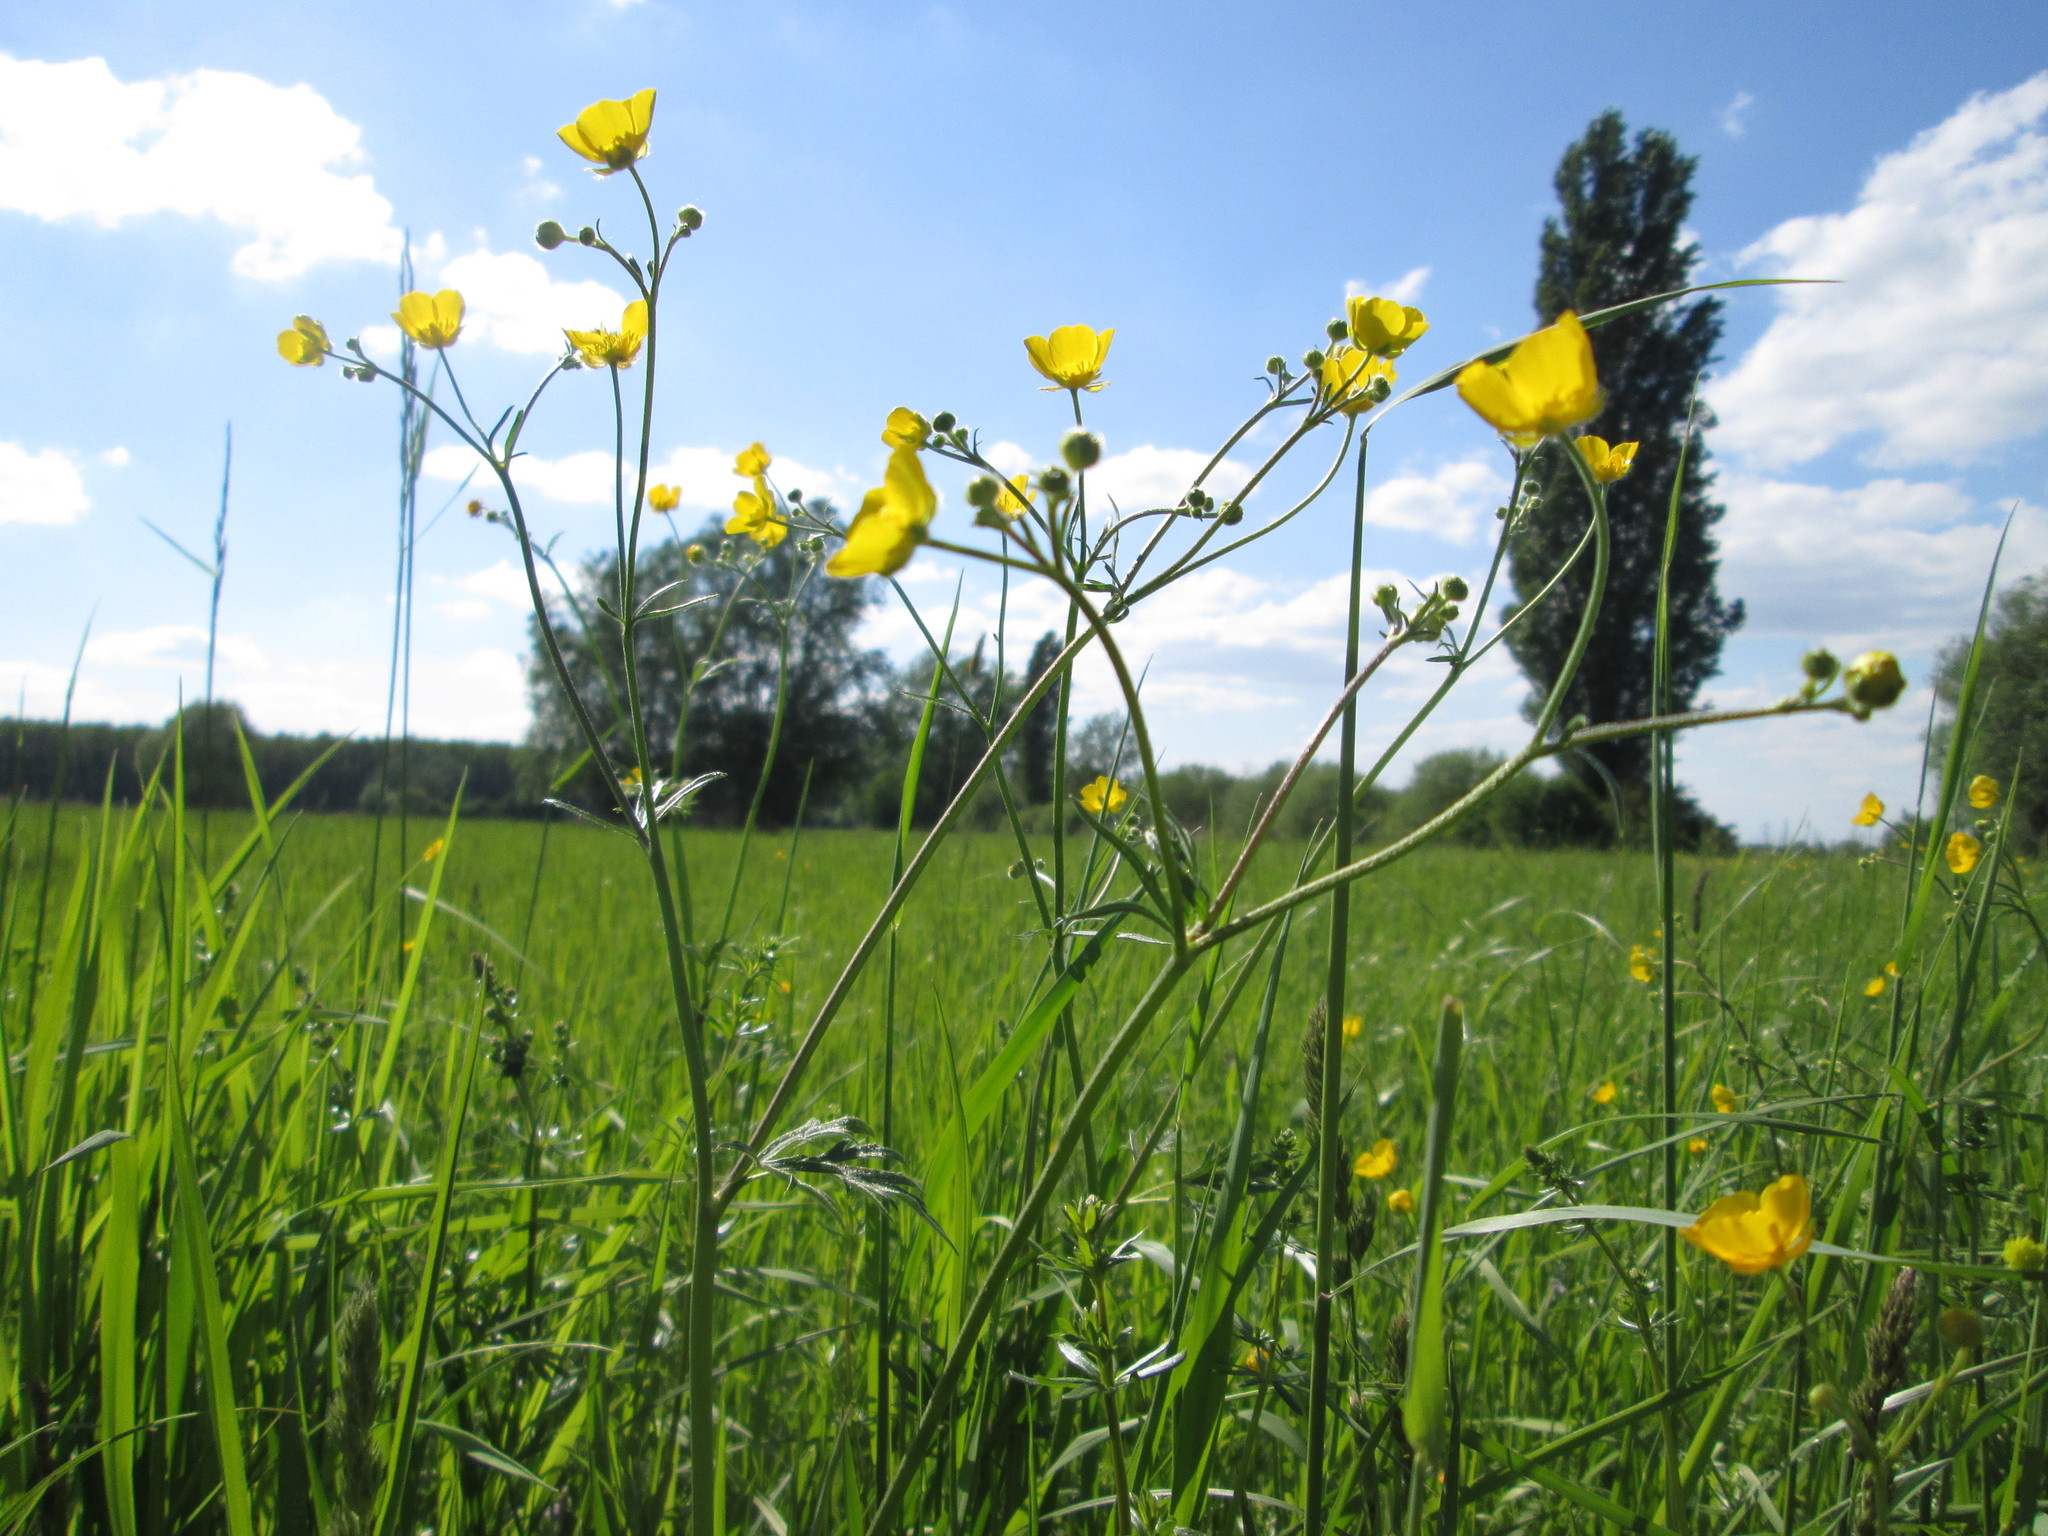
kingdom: Plantae
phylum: Tracheophyta
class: Magnoliopsida
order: Ranunculales
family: Ranunculaceae
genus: Ranunculus
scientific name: Ranunculus acris
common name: Meadow buttercup
